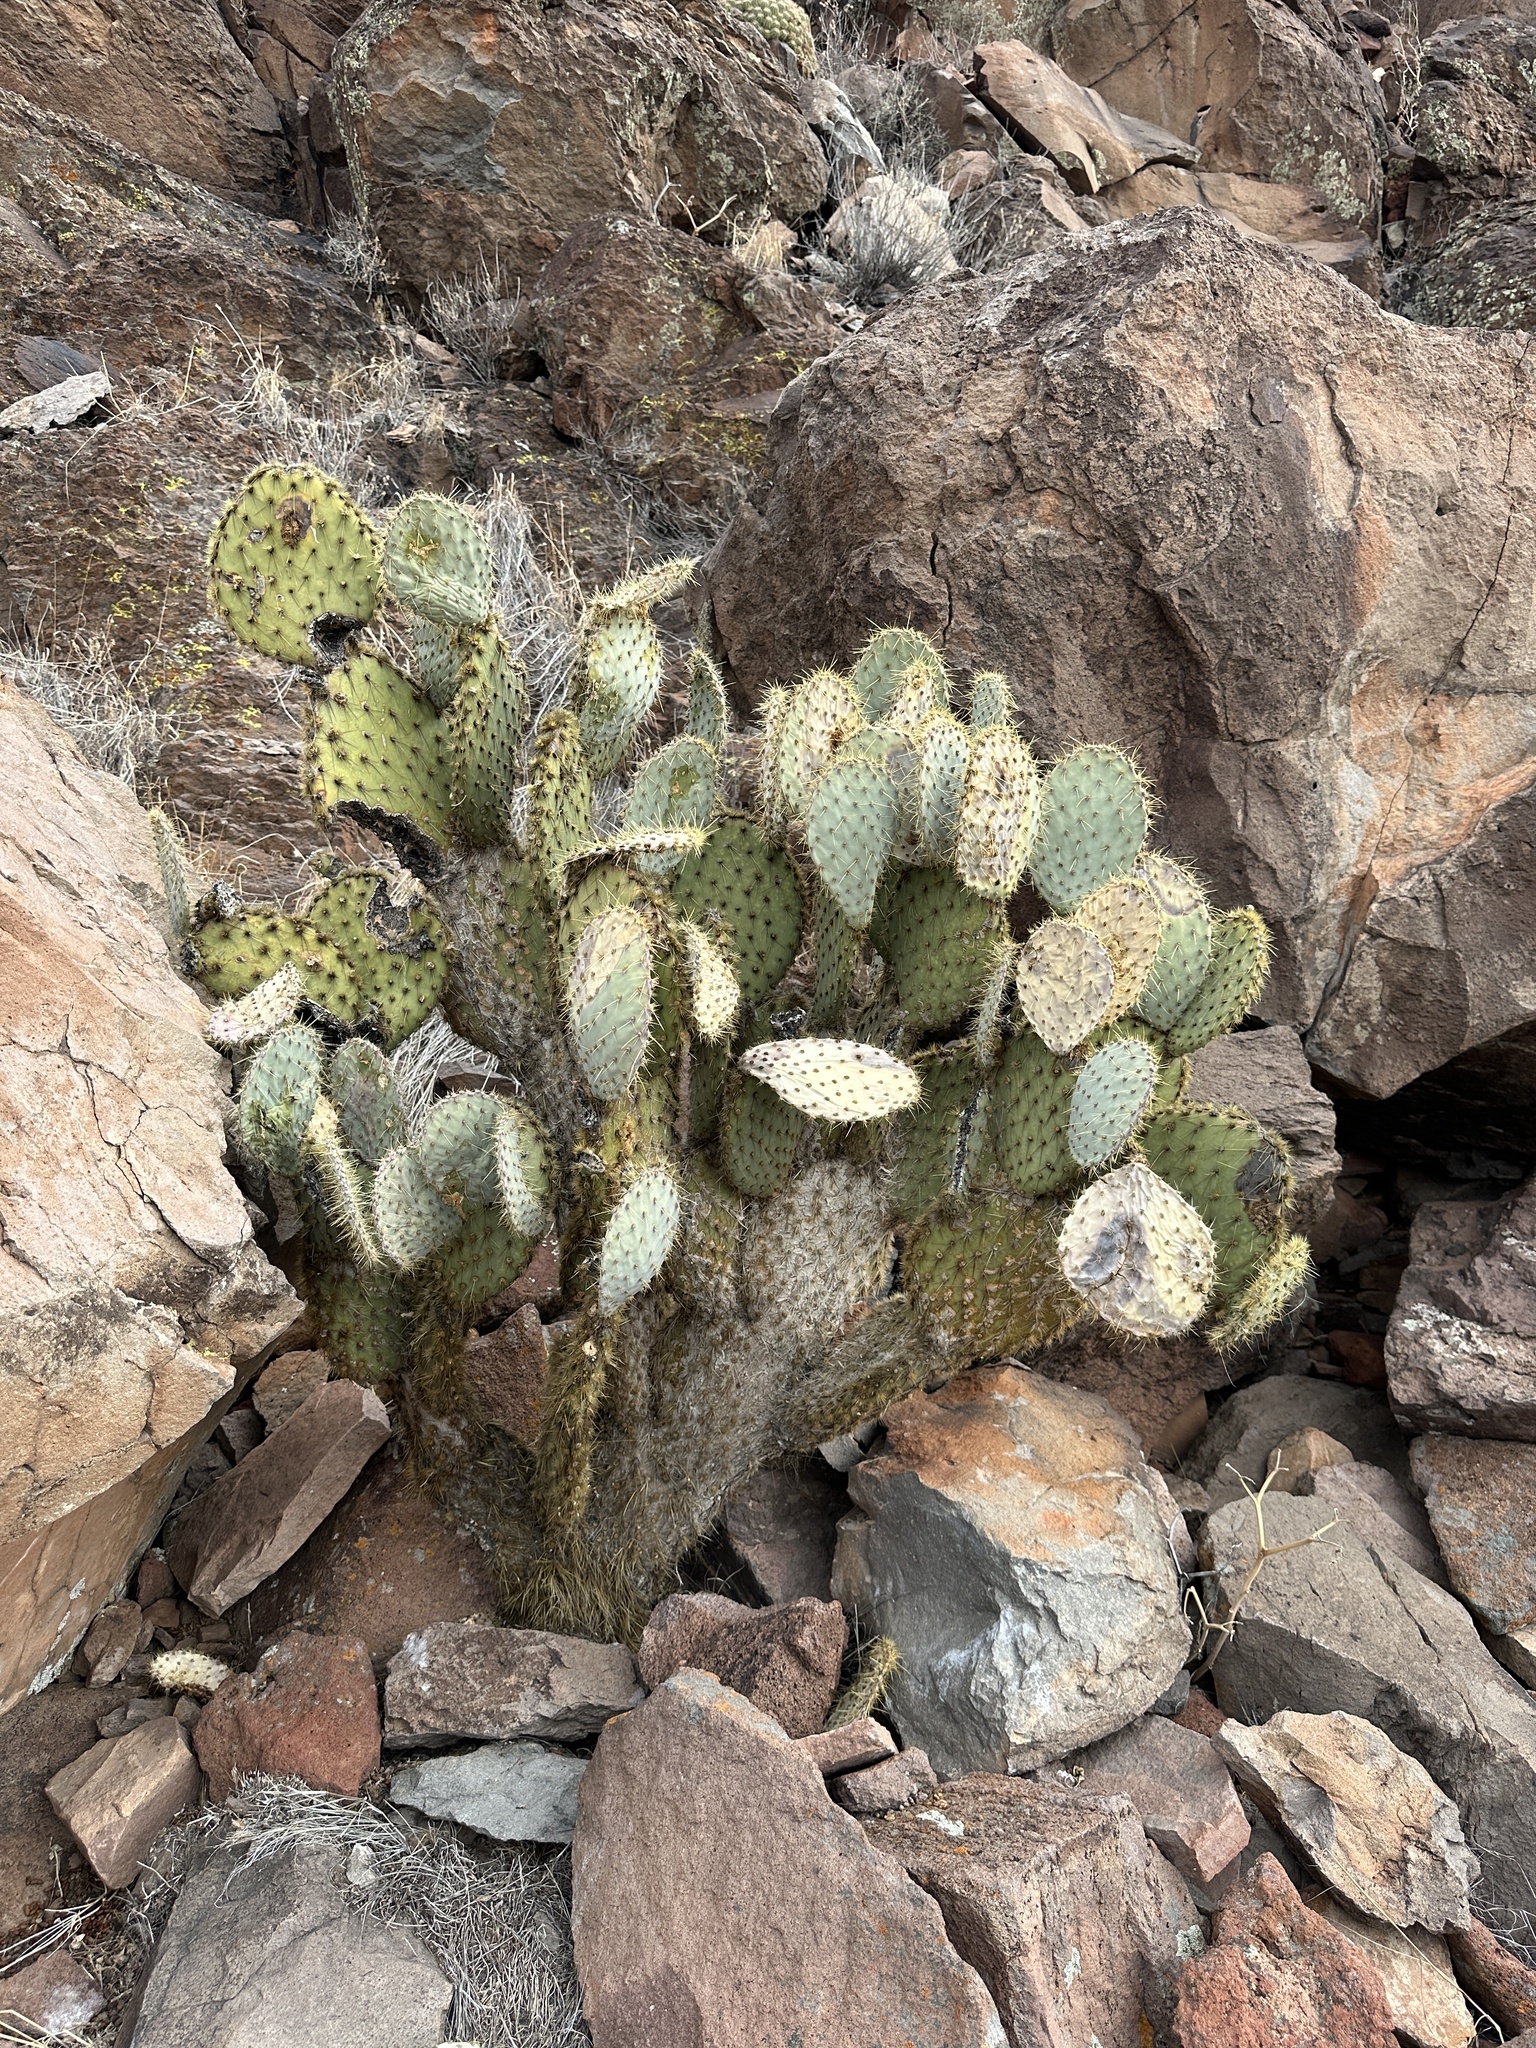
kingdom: Plantae
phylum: Tracheophyta
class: Magnoliopsida
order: Caryophyllales
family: Cactaceae
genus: Opuntia
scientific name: Opuntia chlorotica
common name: Dollar-joint prickly-pear
